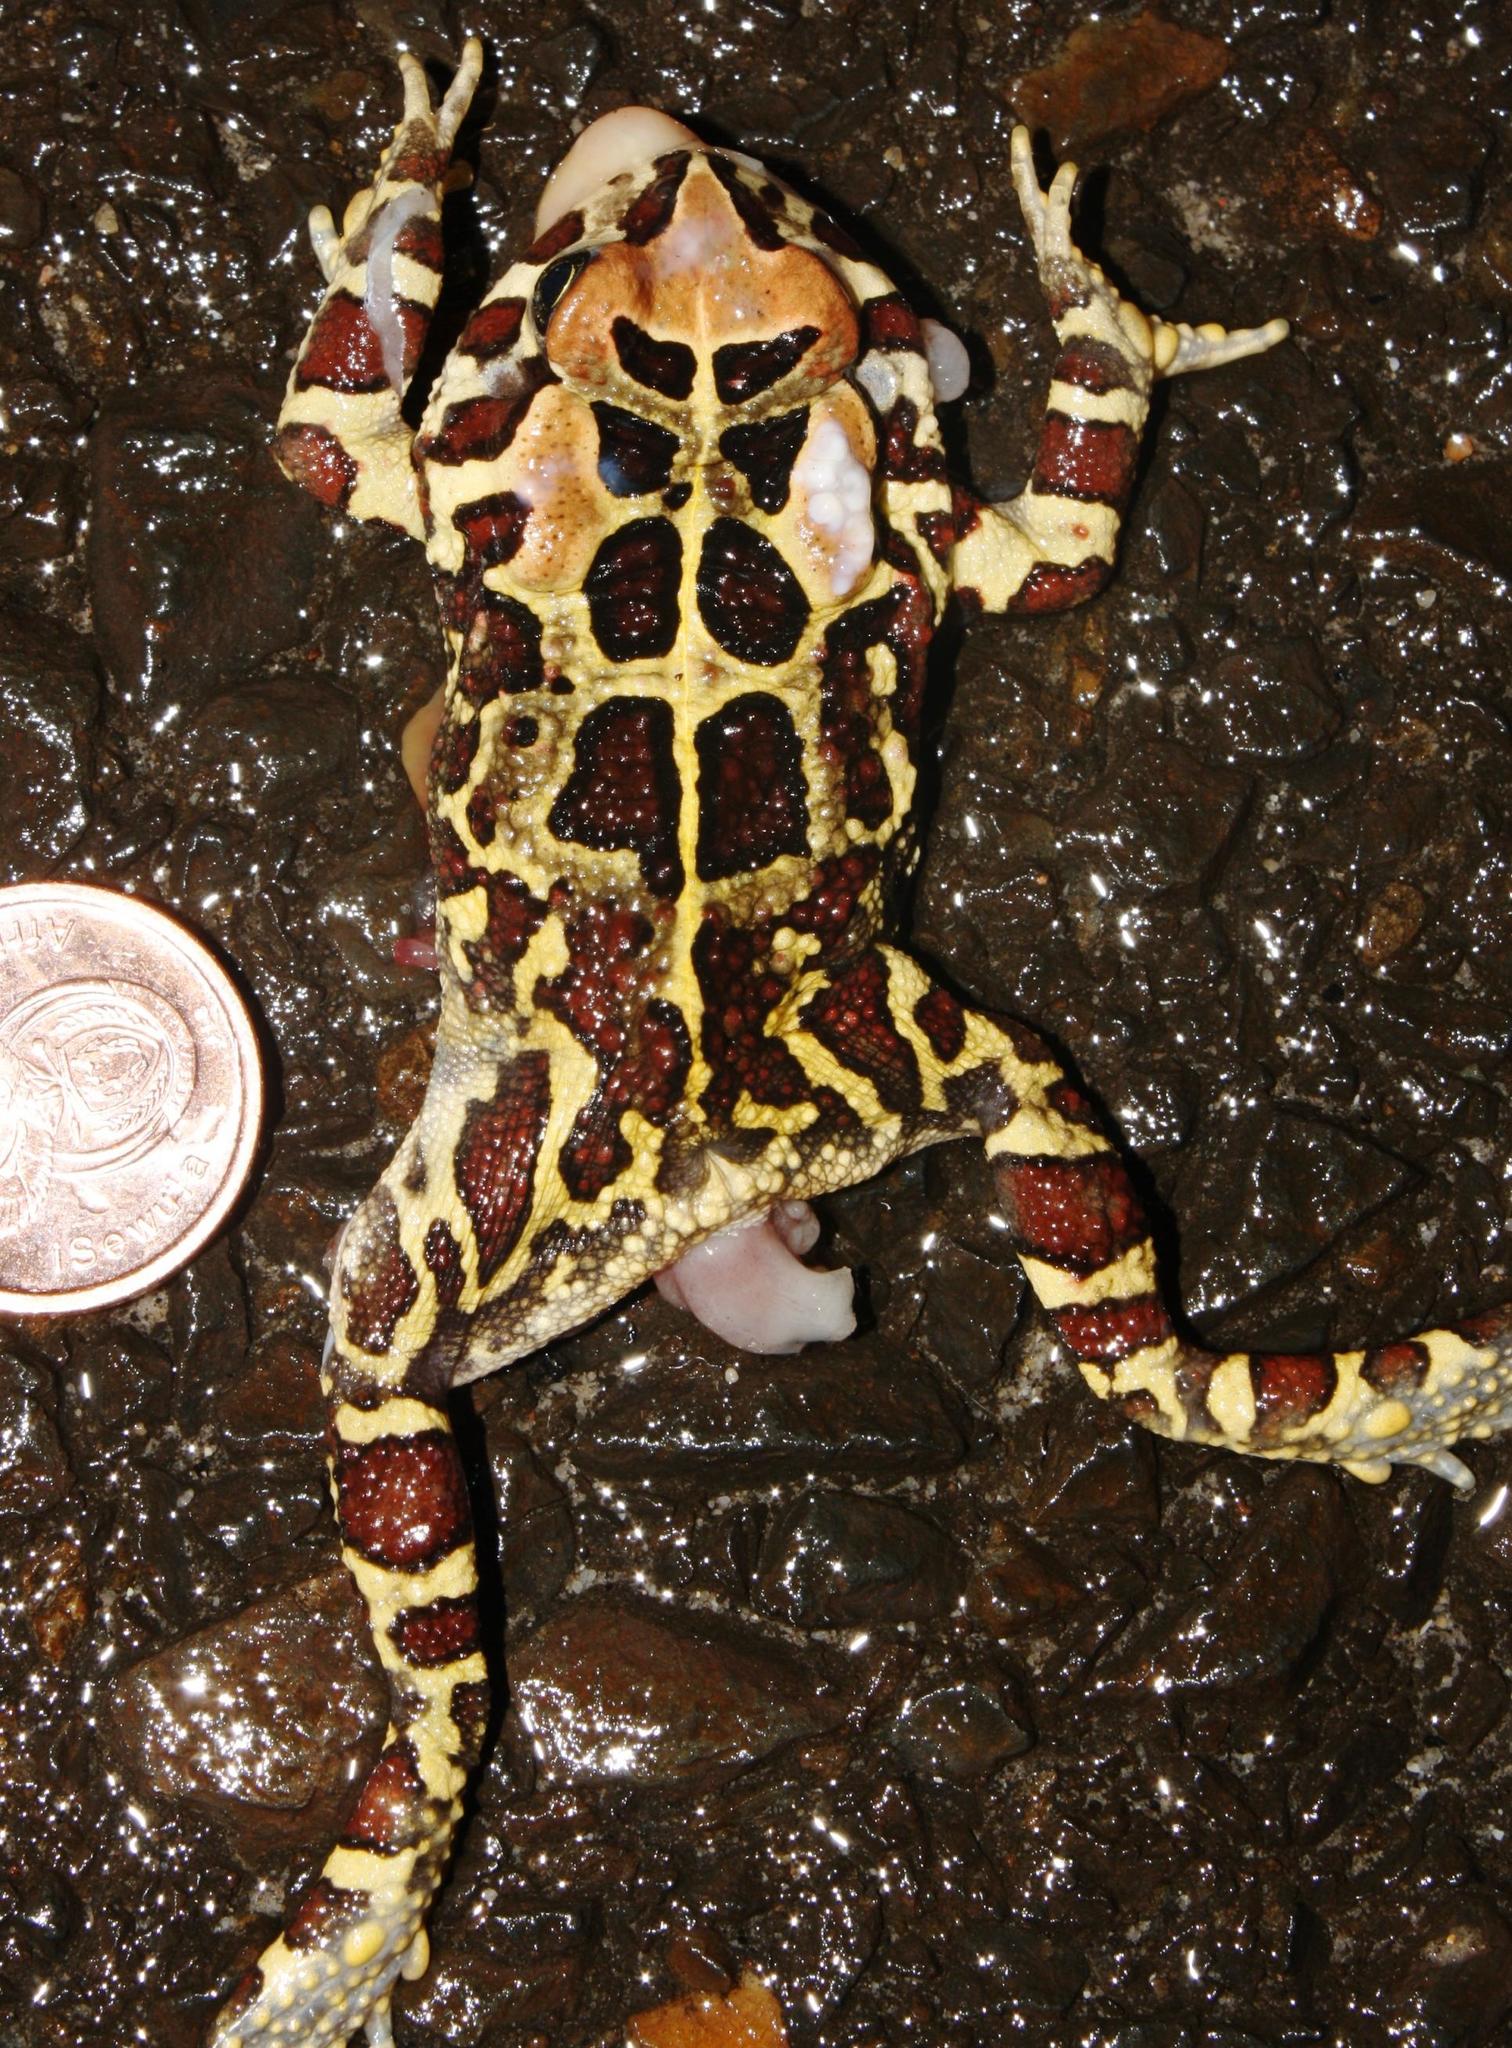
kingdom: Animalia
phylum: Chordata
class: Amphibia
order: Anura
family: Bufonidae
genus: Sclerophrys
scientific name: Sclerophrys pantherina
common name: Panther toad
